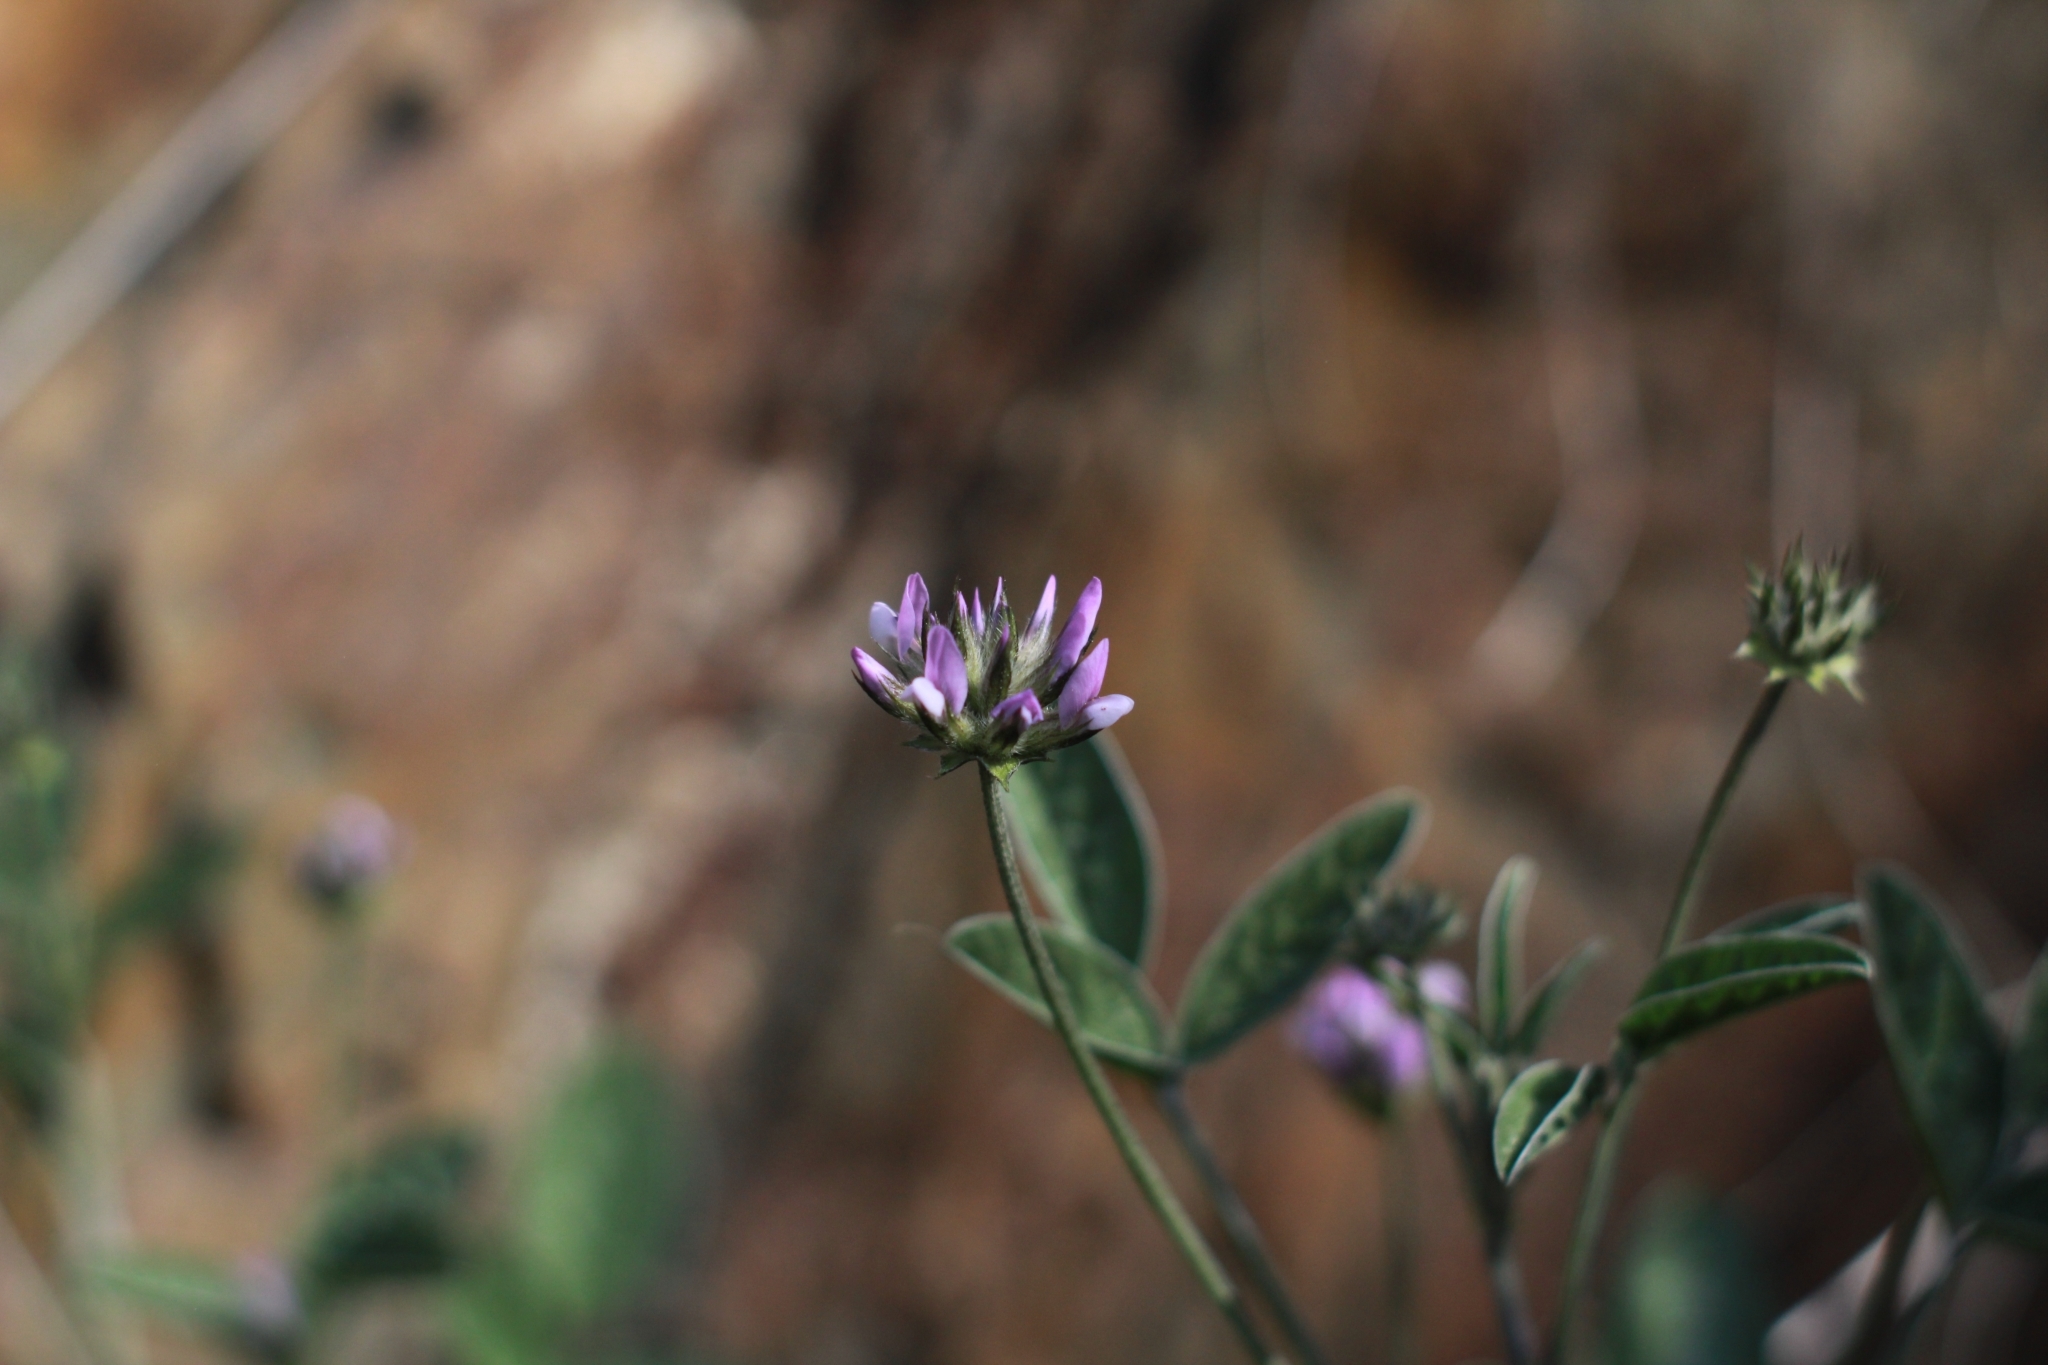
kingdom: Plantae
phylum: Tracheophyta
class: Magnoliopsida
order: Fabales
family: Fabaceae
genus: Bituminaria
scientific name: Bituminaria bituminosa
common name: Arabian pea
